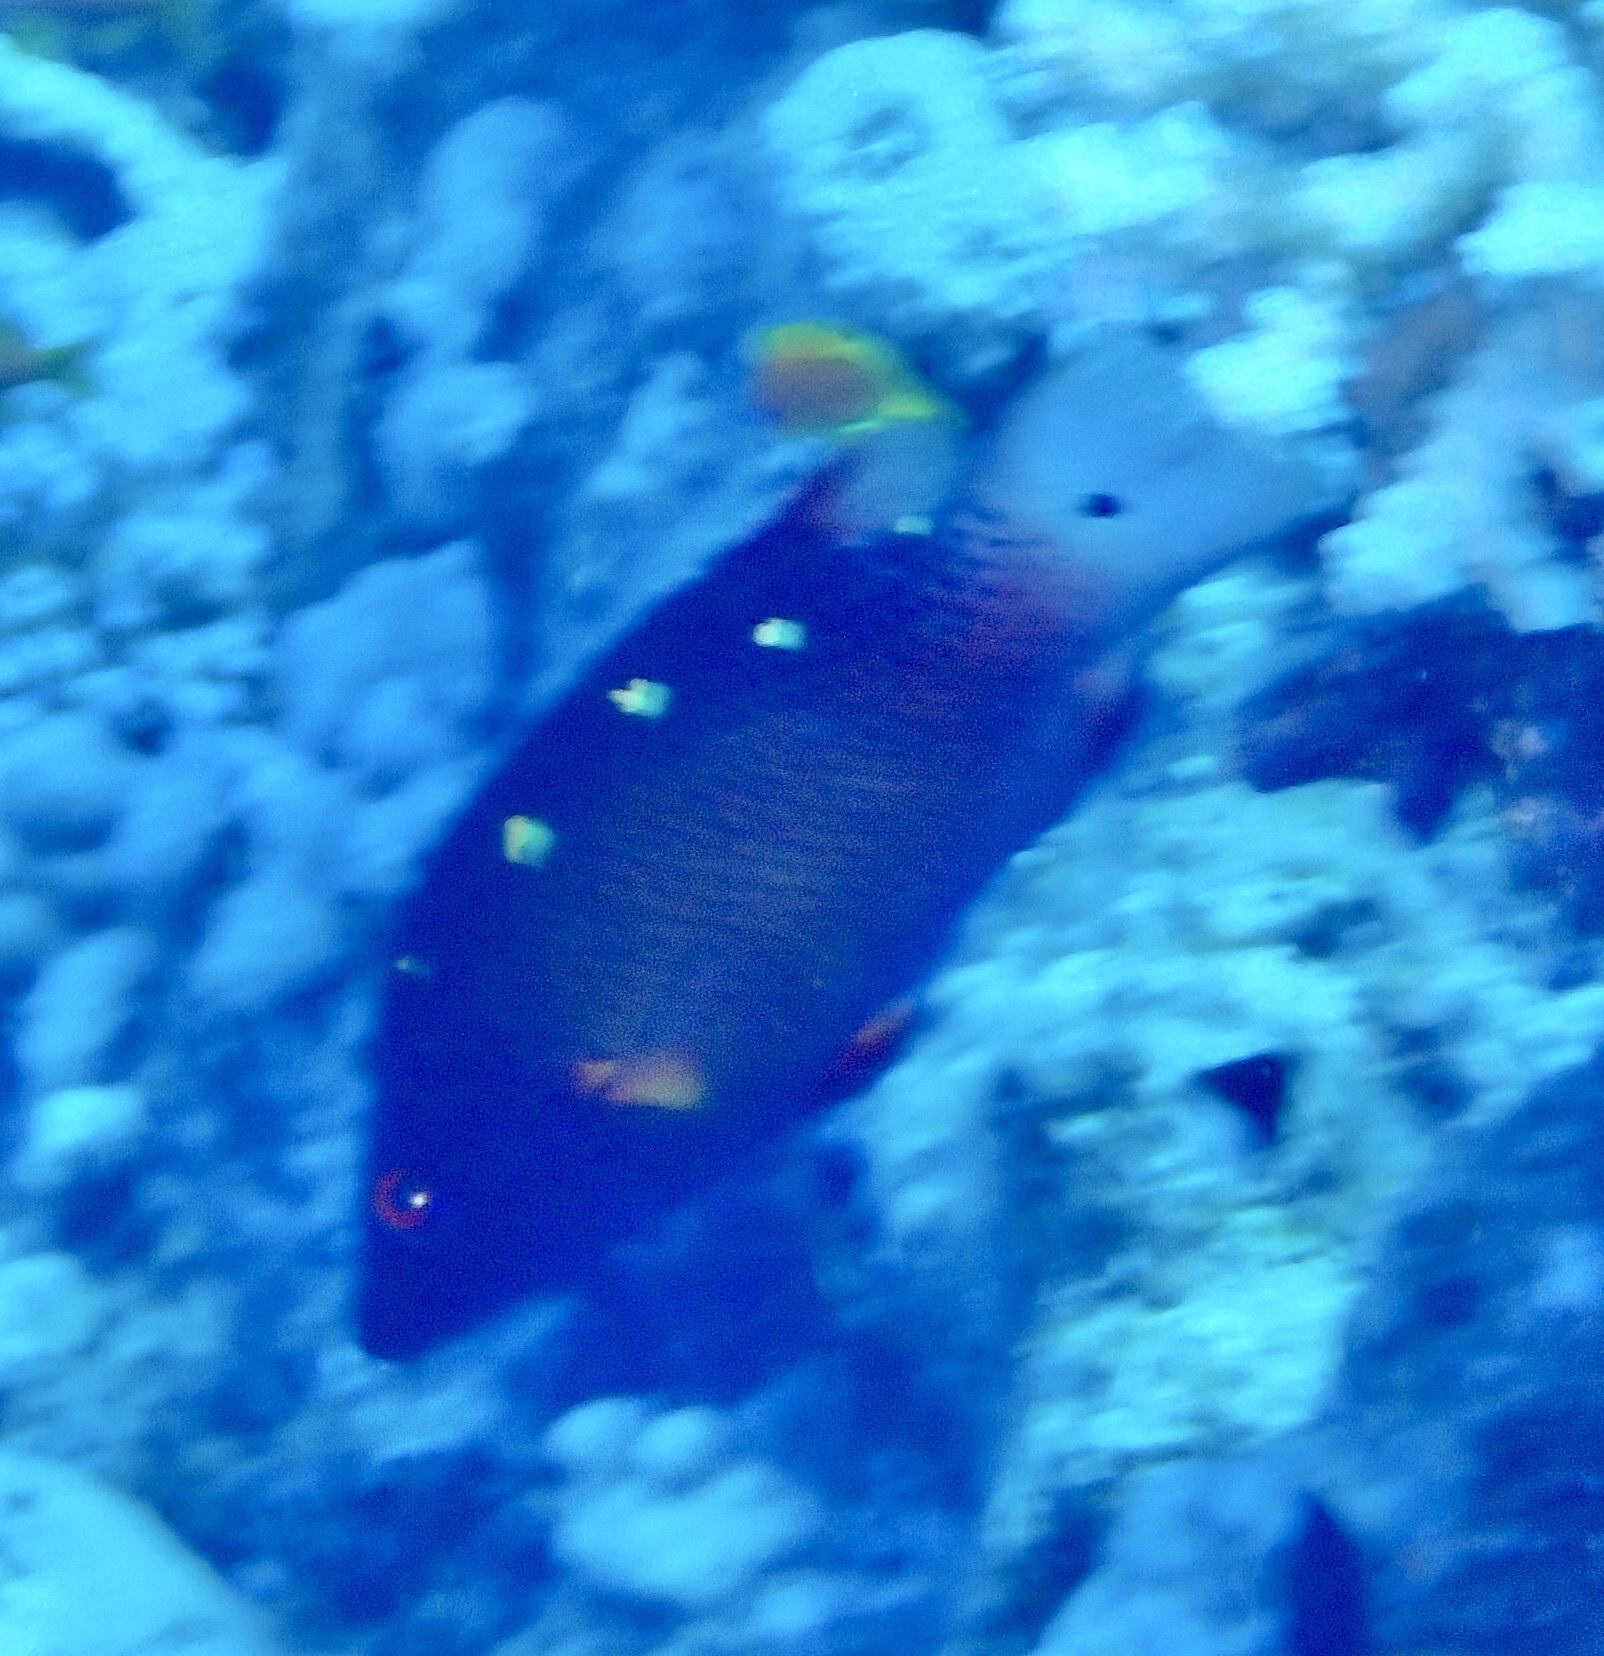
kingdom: Animalia
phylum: Chordata
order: Perciformes
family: Labridae
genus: Bodianus
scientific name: Bodianus diana
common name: Diana's hogfish
